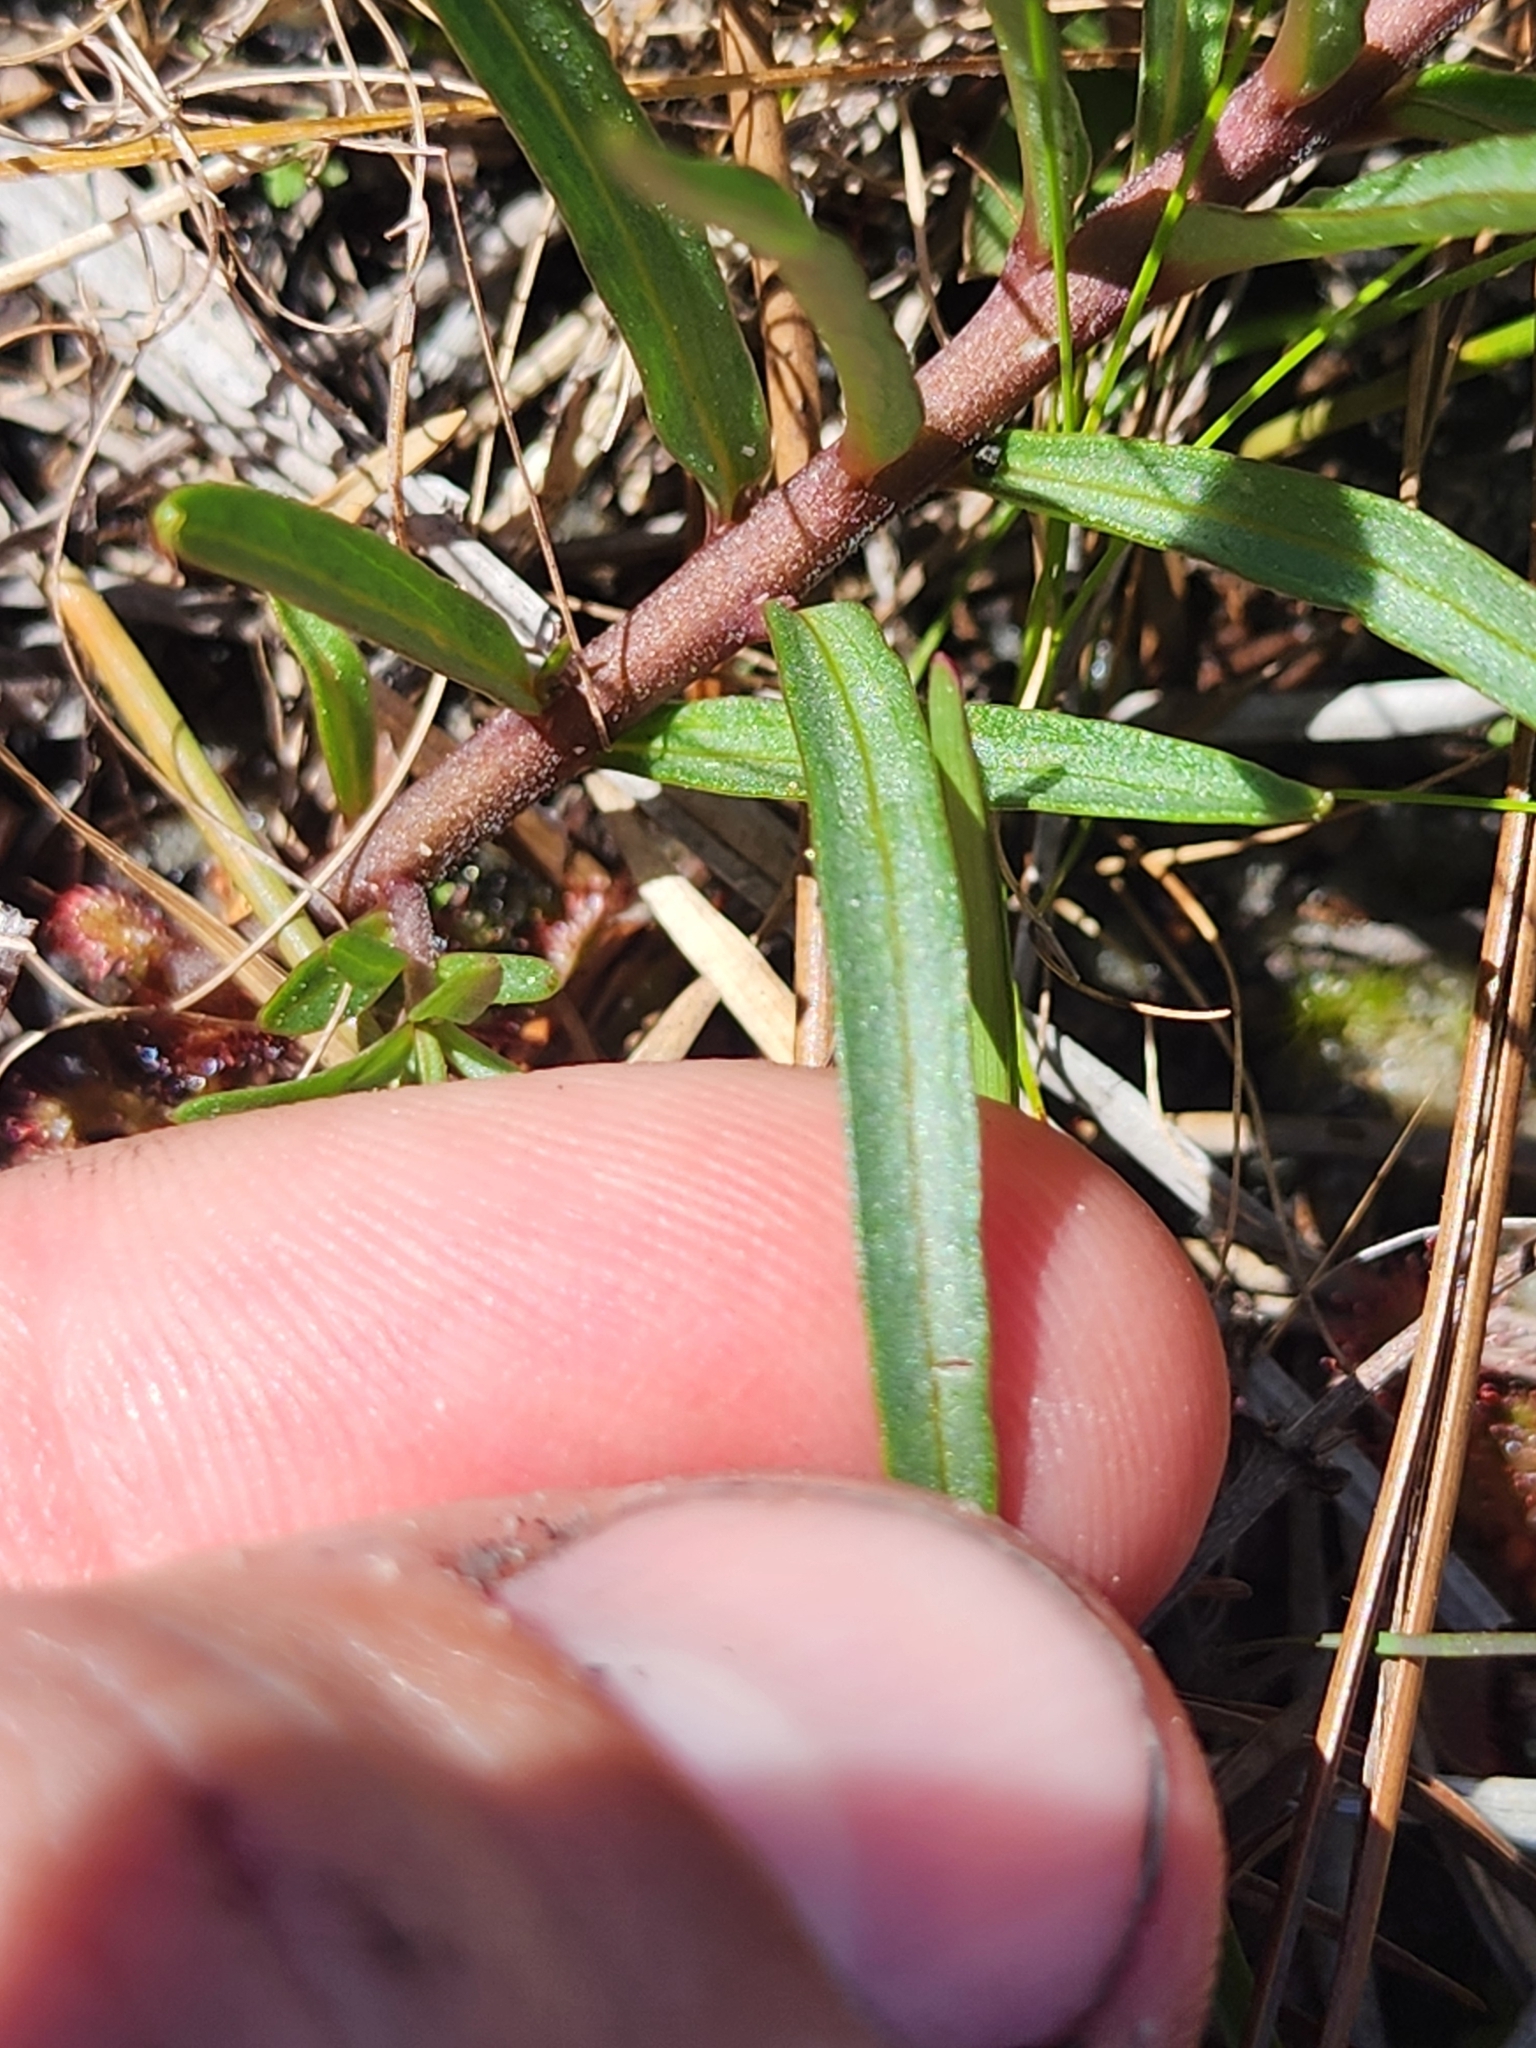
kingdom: Plantae
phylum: Tracheophyta
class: Magnoliopsida
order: Gentianales
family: Apocynaceae
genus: Asclepias
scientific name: Asclepias michauxii
